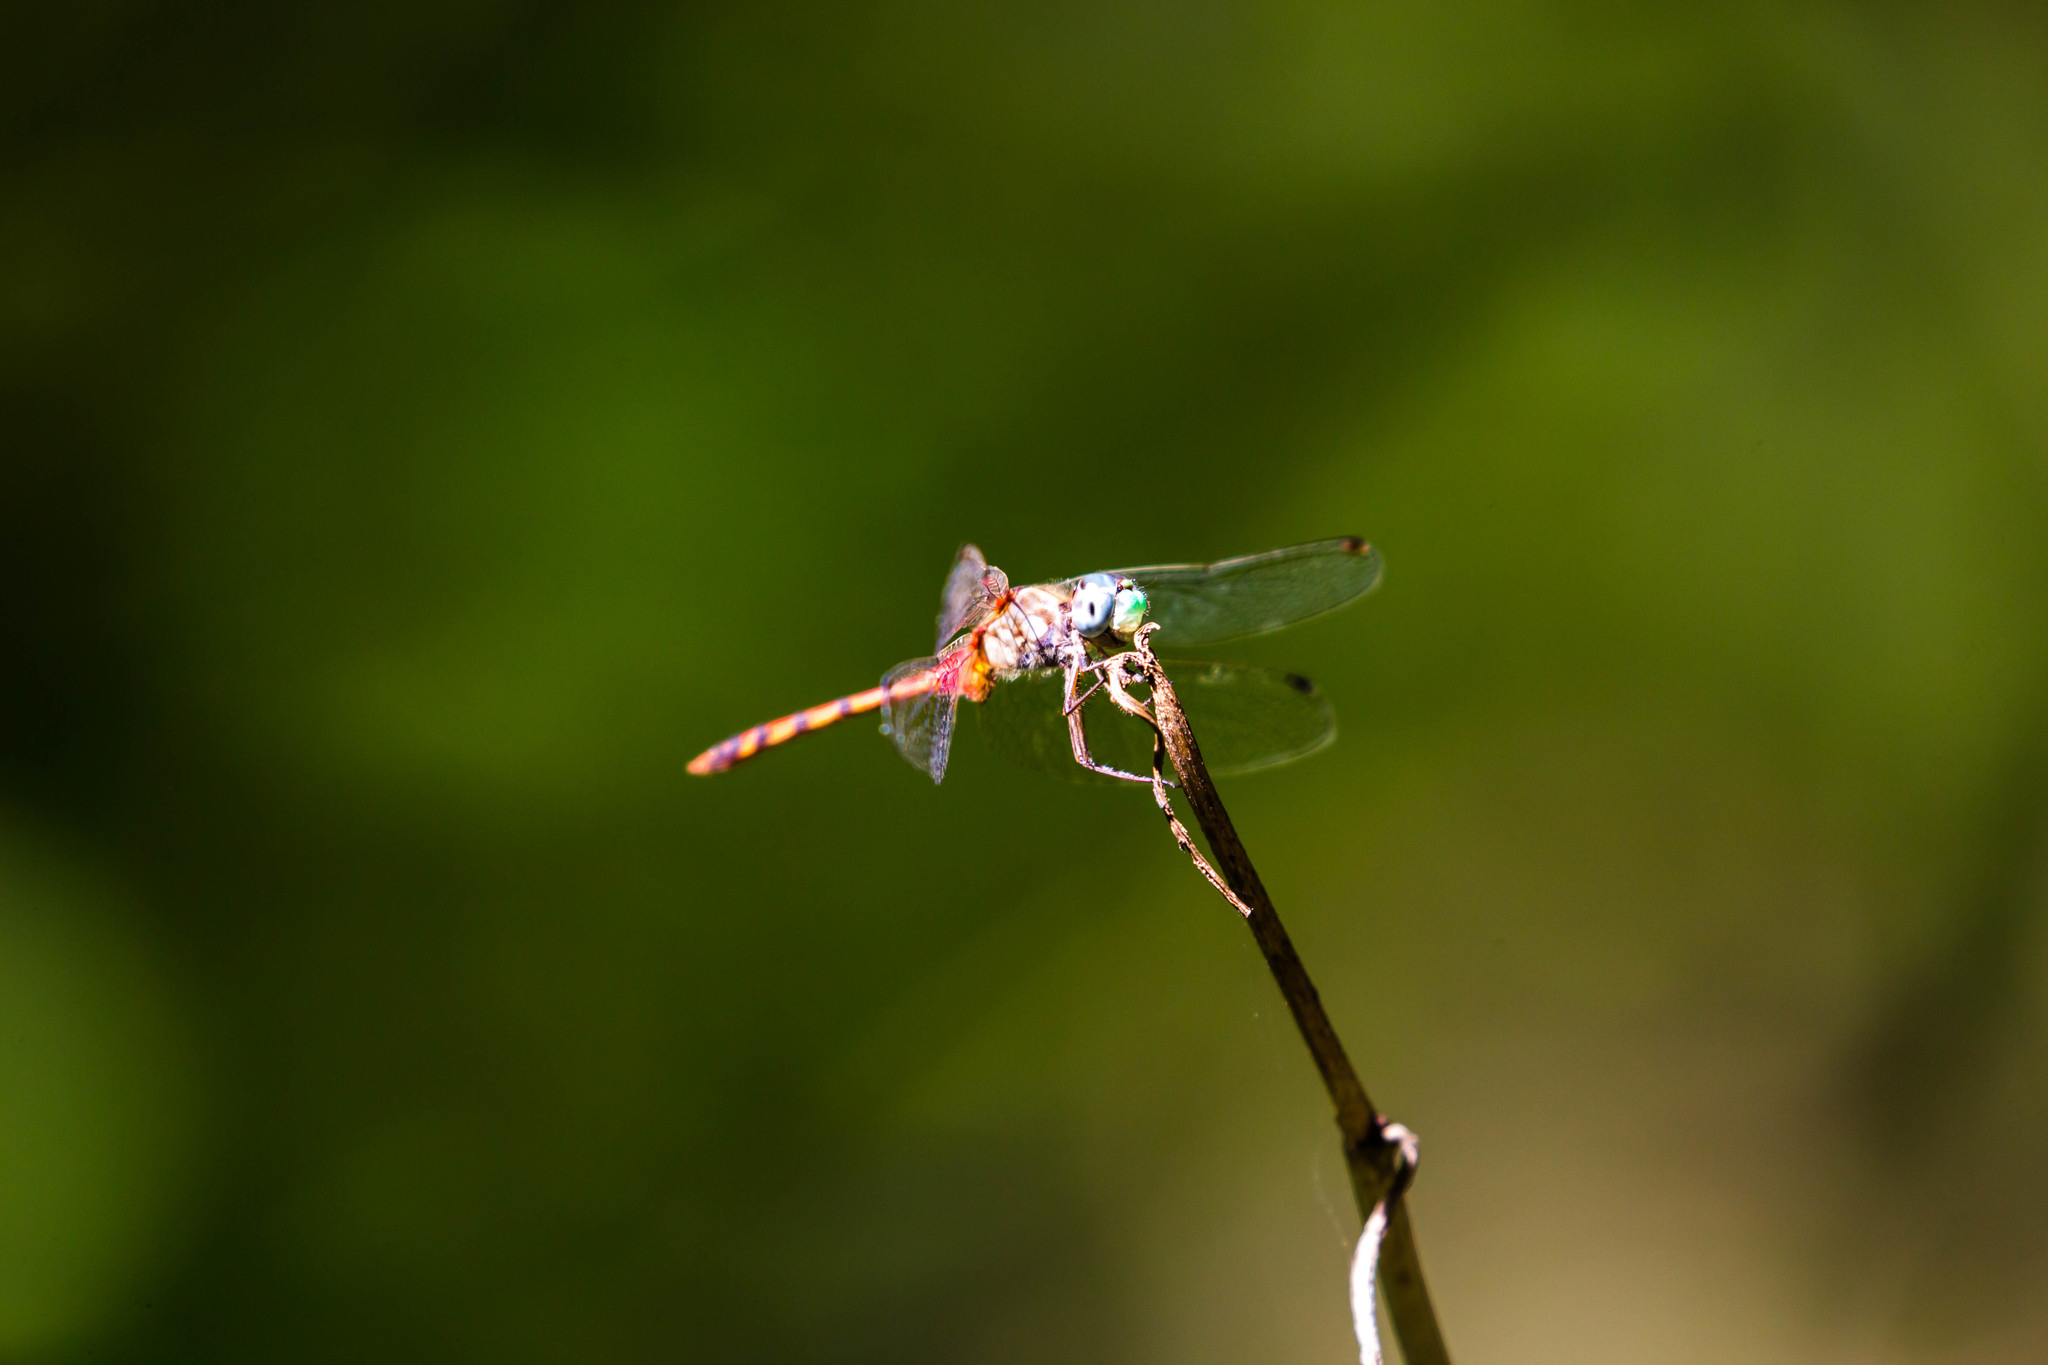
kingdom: Animalia
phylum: Arthropoda
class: Insecta
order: Odonata
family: Libellulidae
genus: Sympetrum
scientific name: Sympetrum ambiguum
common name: Blue-faced meadowhawk
